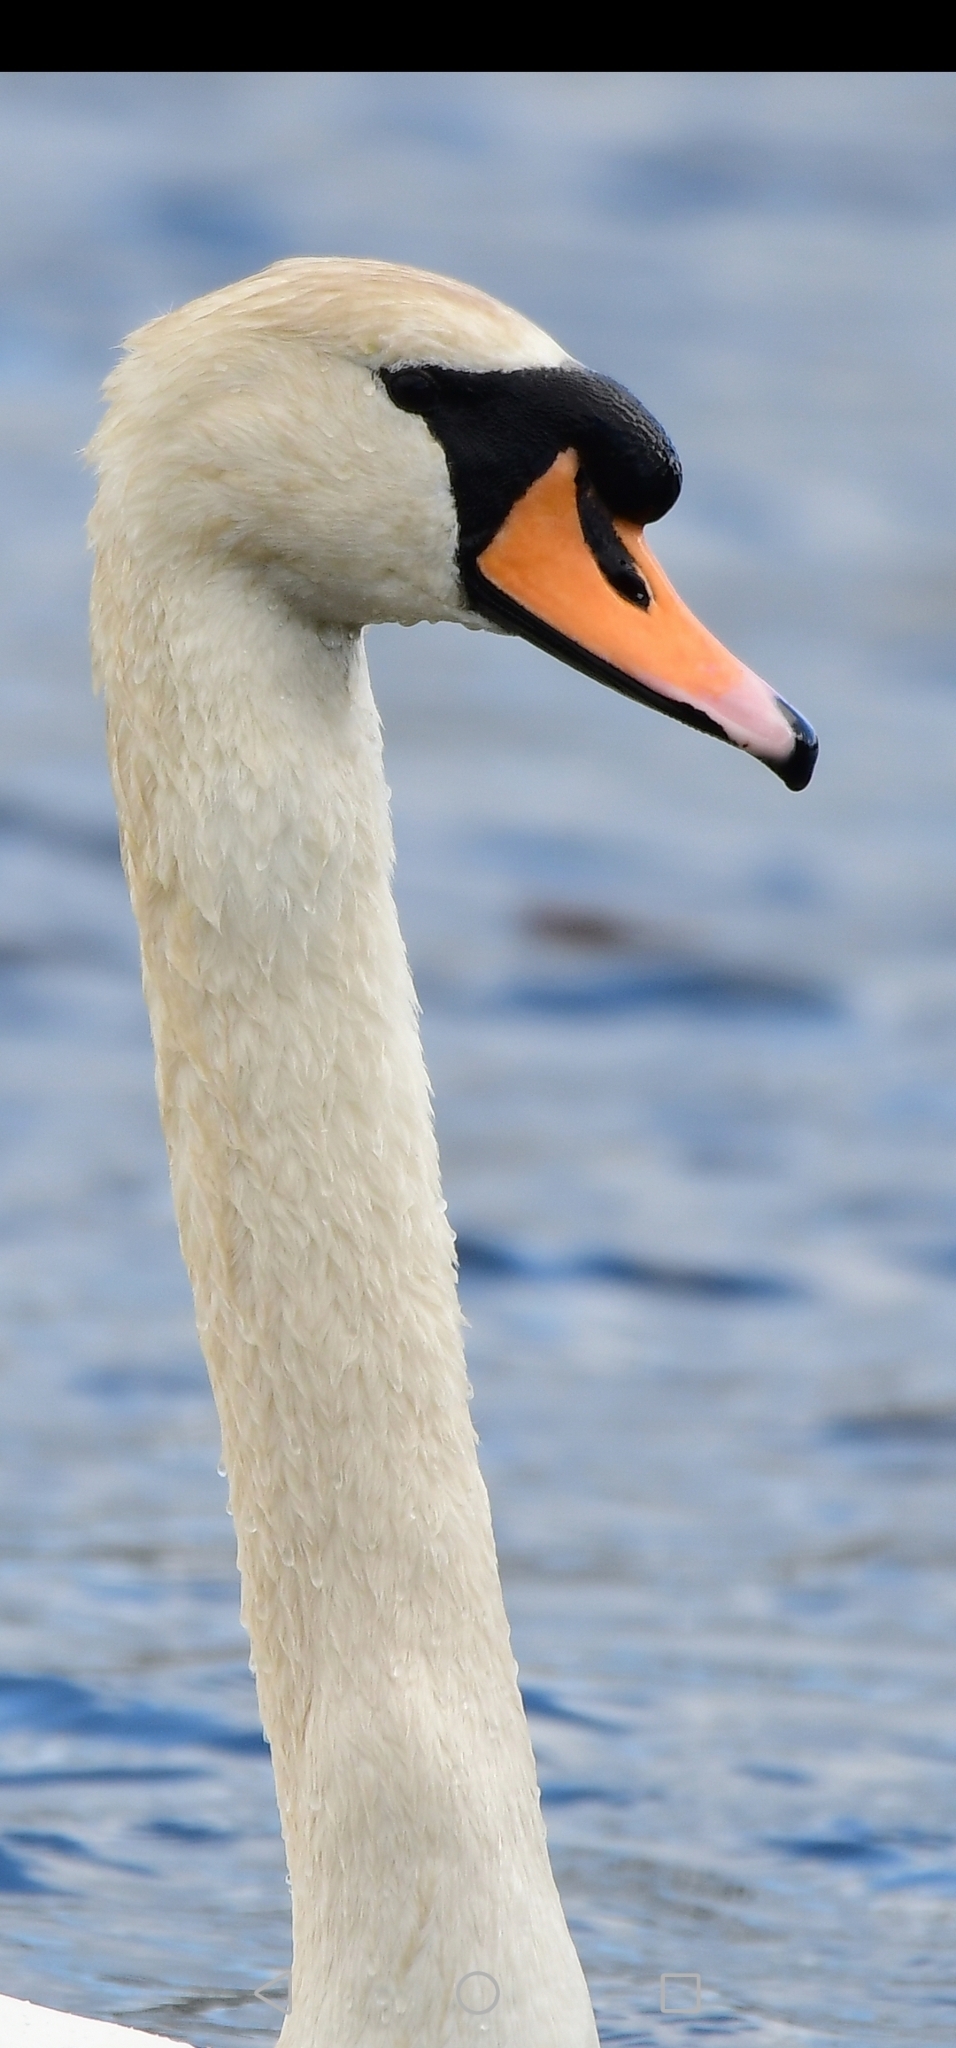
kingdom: Animalia
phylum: Chordata
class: Aves
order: Anseriformes
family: Anatidae
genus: Cygnus
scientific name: Cygnus olor
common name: Mute swan
